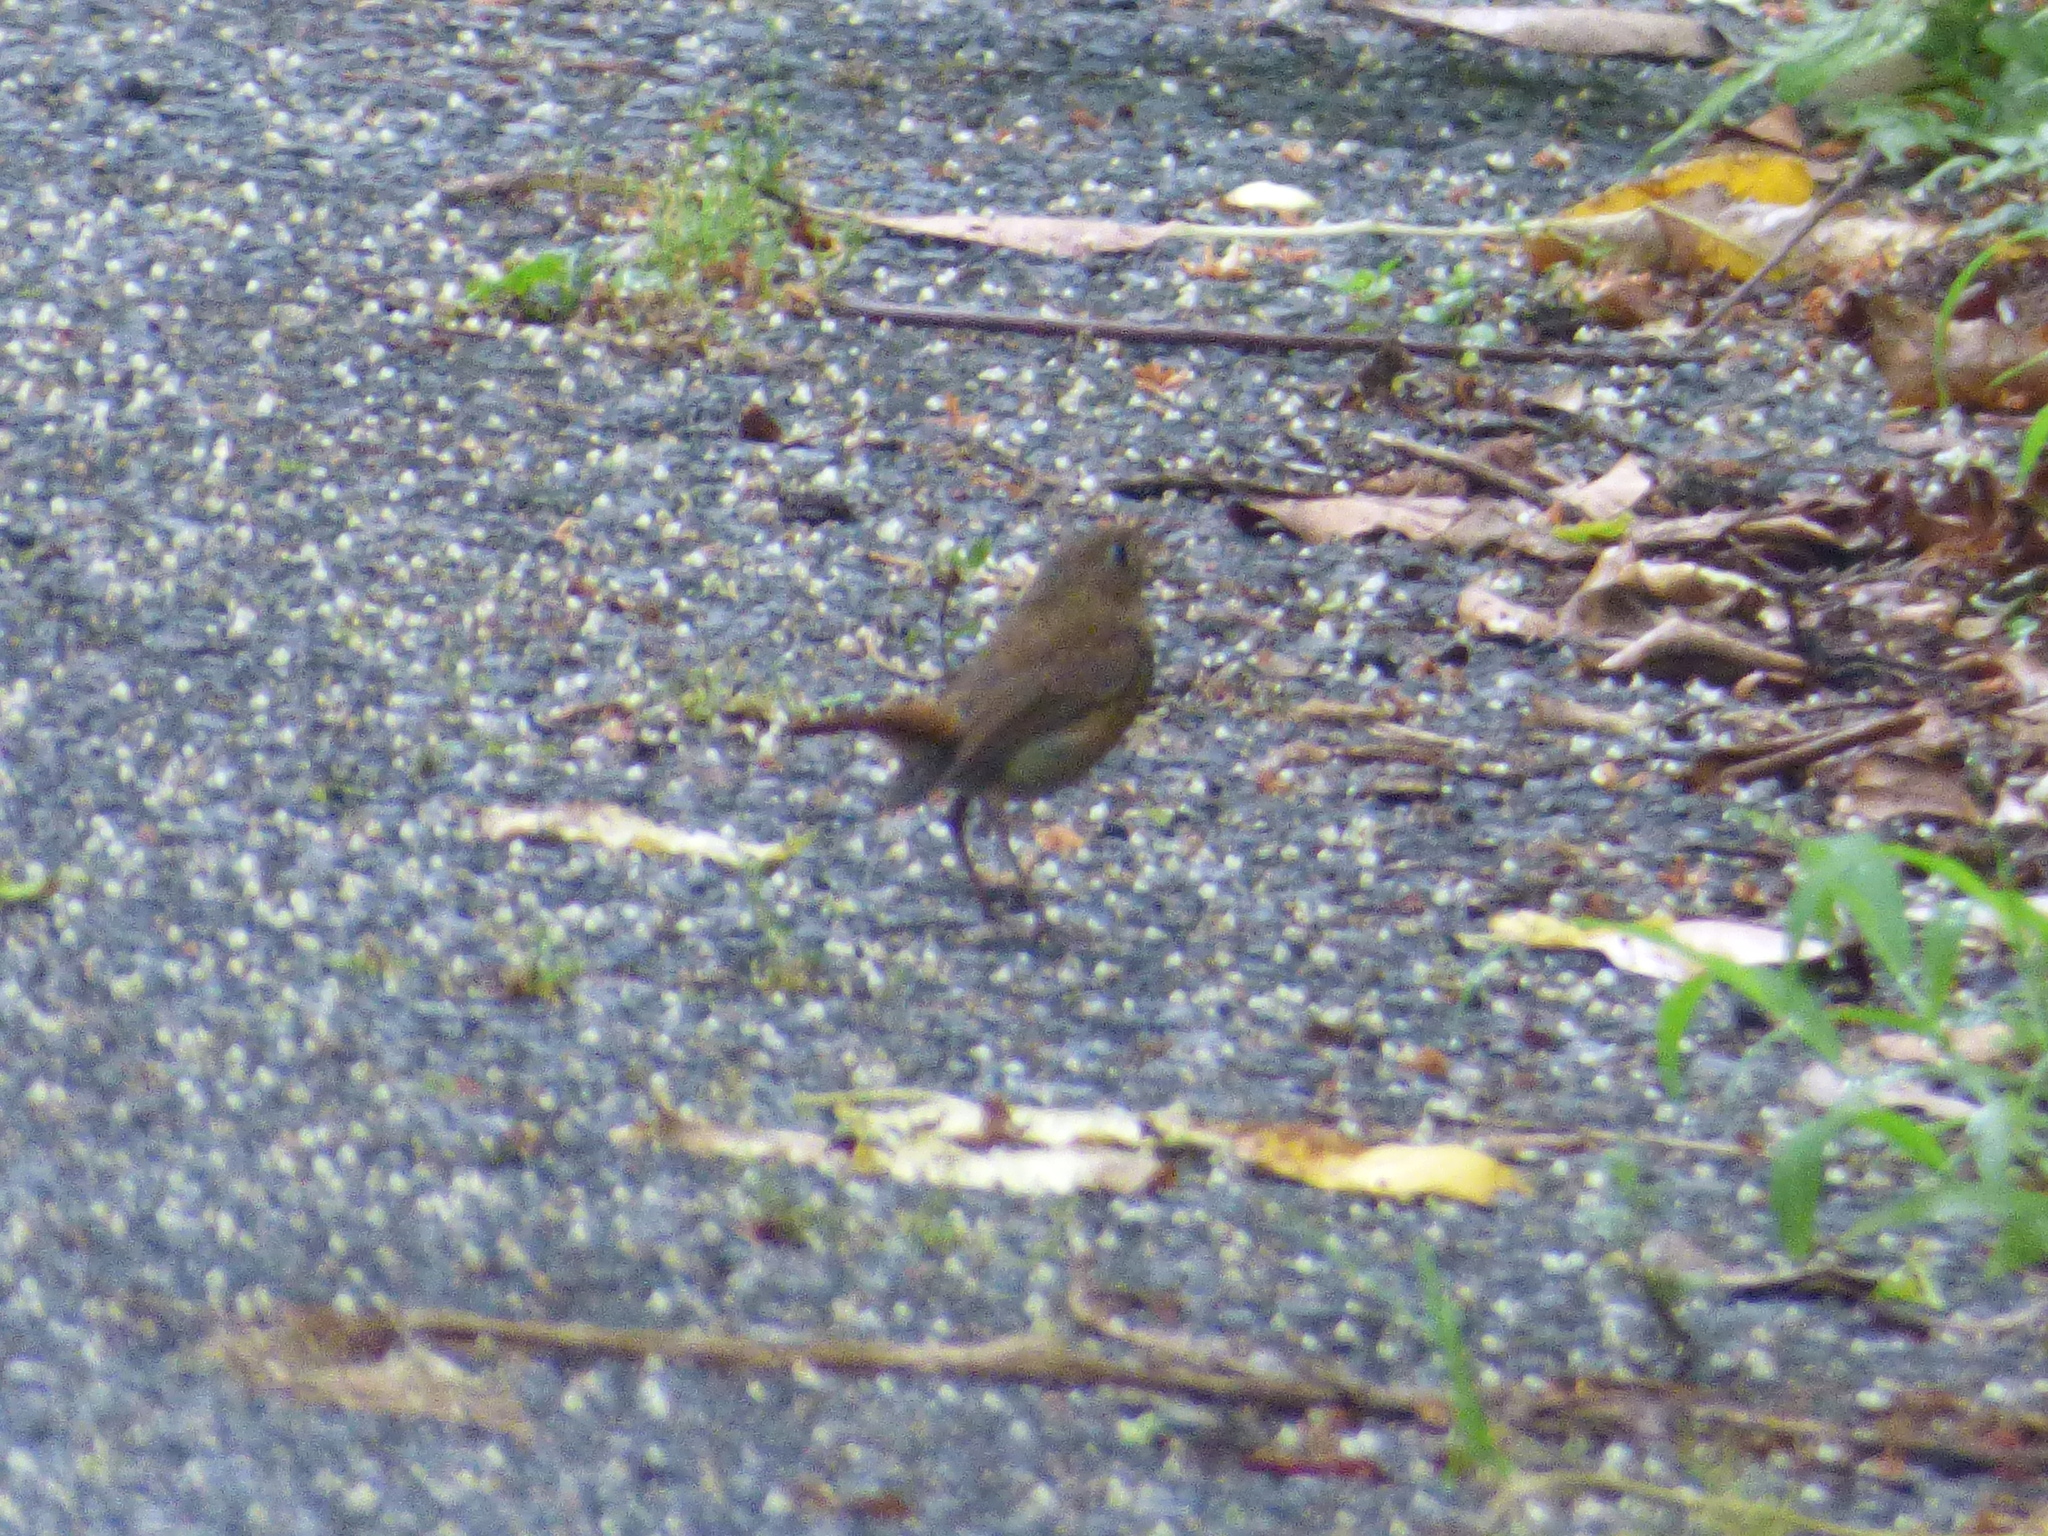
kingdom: Animalia
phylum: Chordata
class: Aves
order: Passeriformes
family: Muscicapidae
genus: Erithacus
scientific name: Erithacus akahige
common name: Japanese robin
